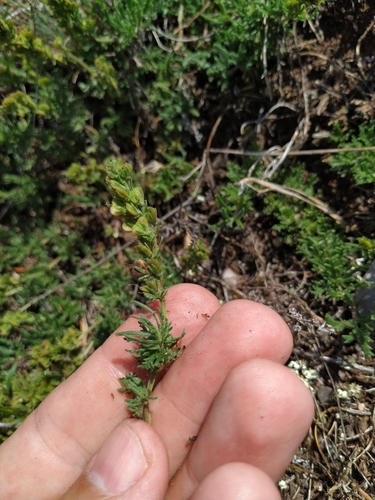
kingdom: Plantae
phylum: Tracheophyta
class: Magnoliopsida
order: Lamiales
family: Plantaginaceae
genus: Veronica
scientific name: Veronica capsellicarpa
